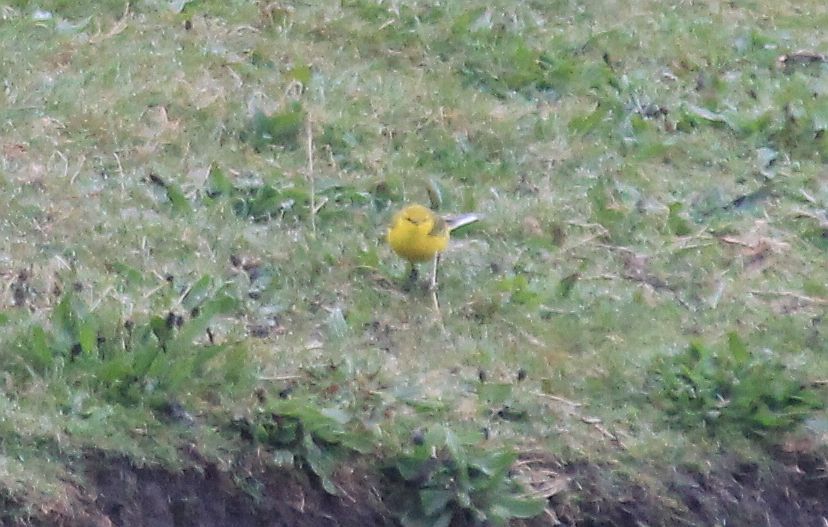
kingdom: Animalia
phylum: Chordata
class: Aves
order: Passeriformes
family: Motacillidae
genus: Motacilla
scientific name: Motacilla flava
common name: Western yellow wagtail
